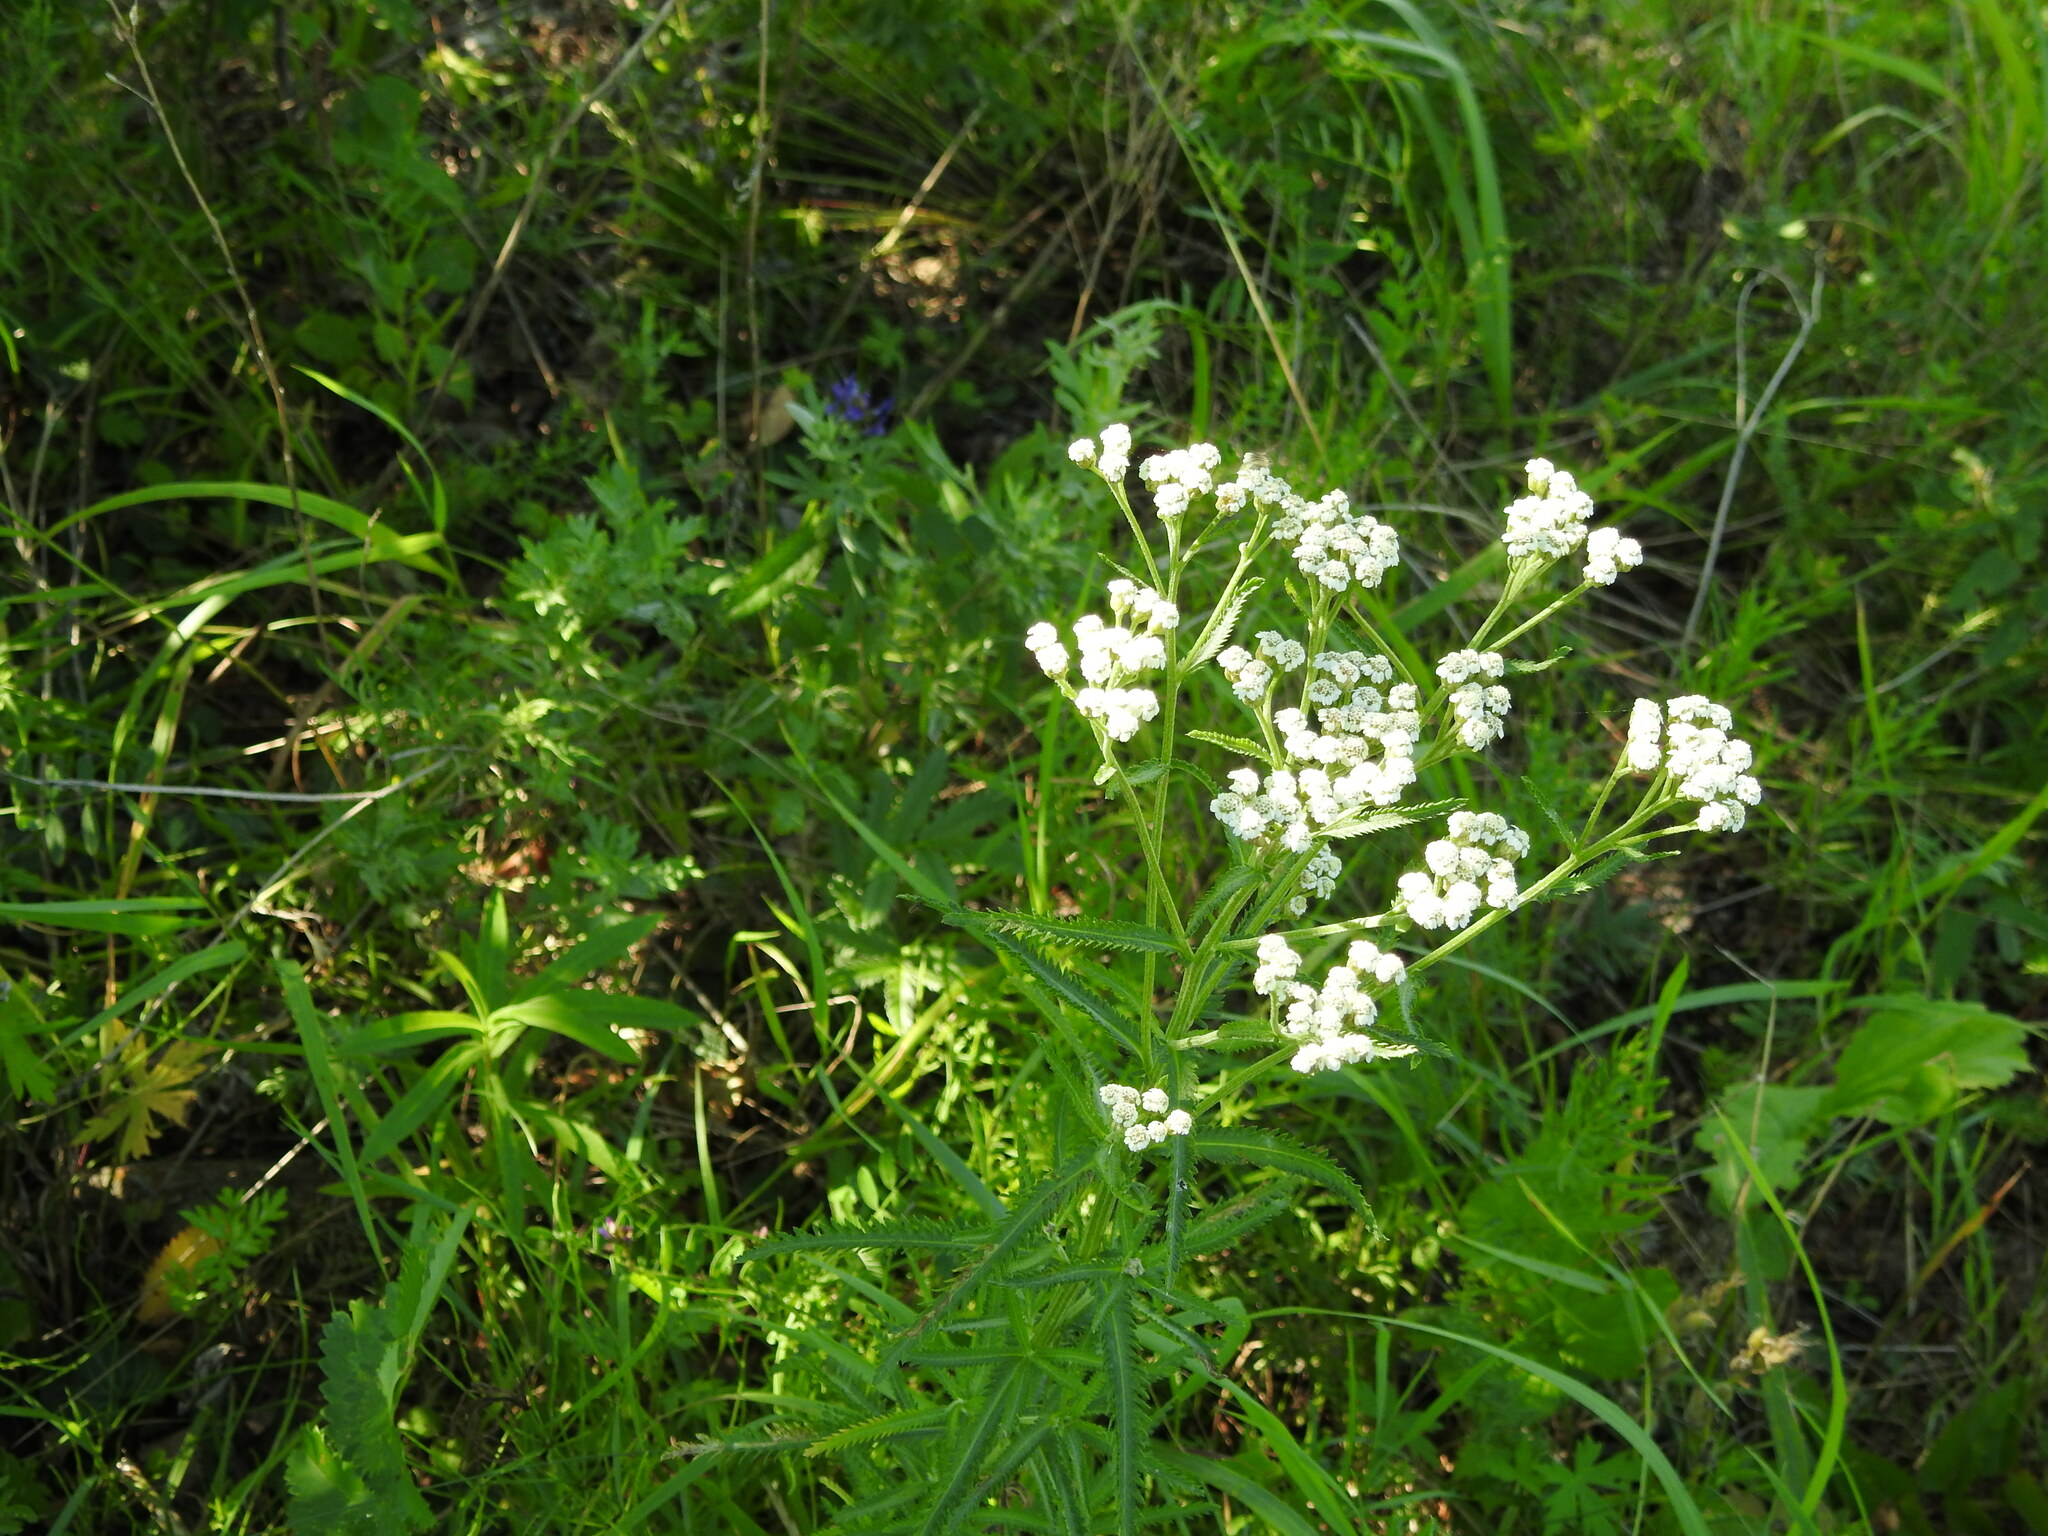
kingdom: Plantae
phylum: Tracheophyta
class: Magnoliopsida
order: Asterales
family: Asteraceae
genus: Achillea
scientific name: Achillea alpina
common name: Siberian yarrow
